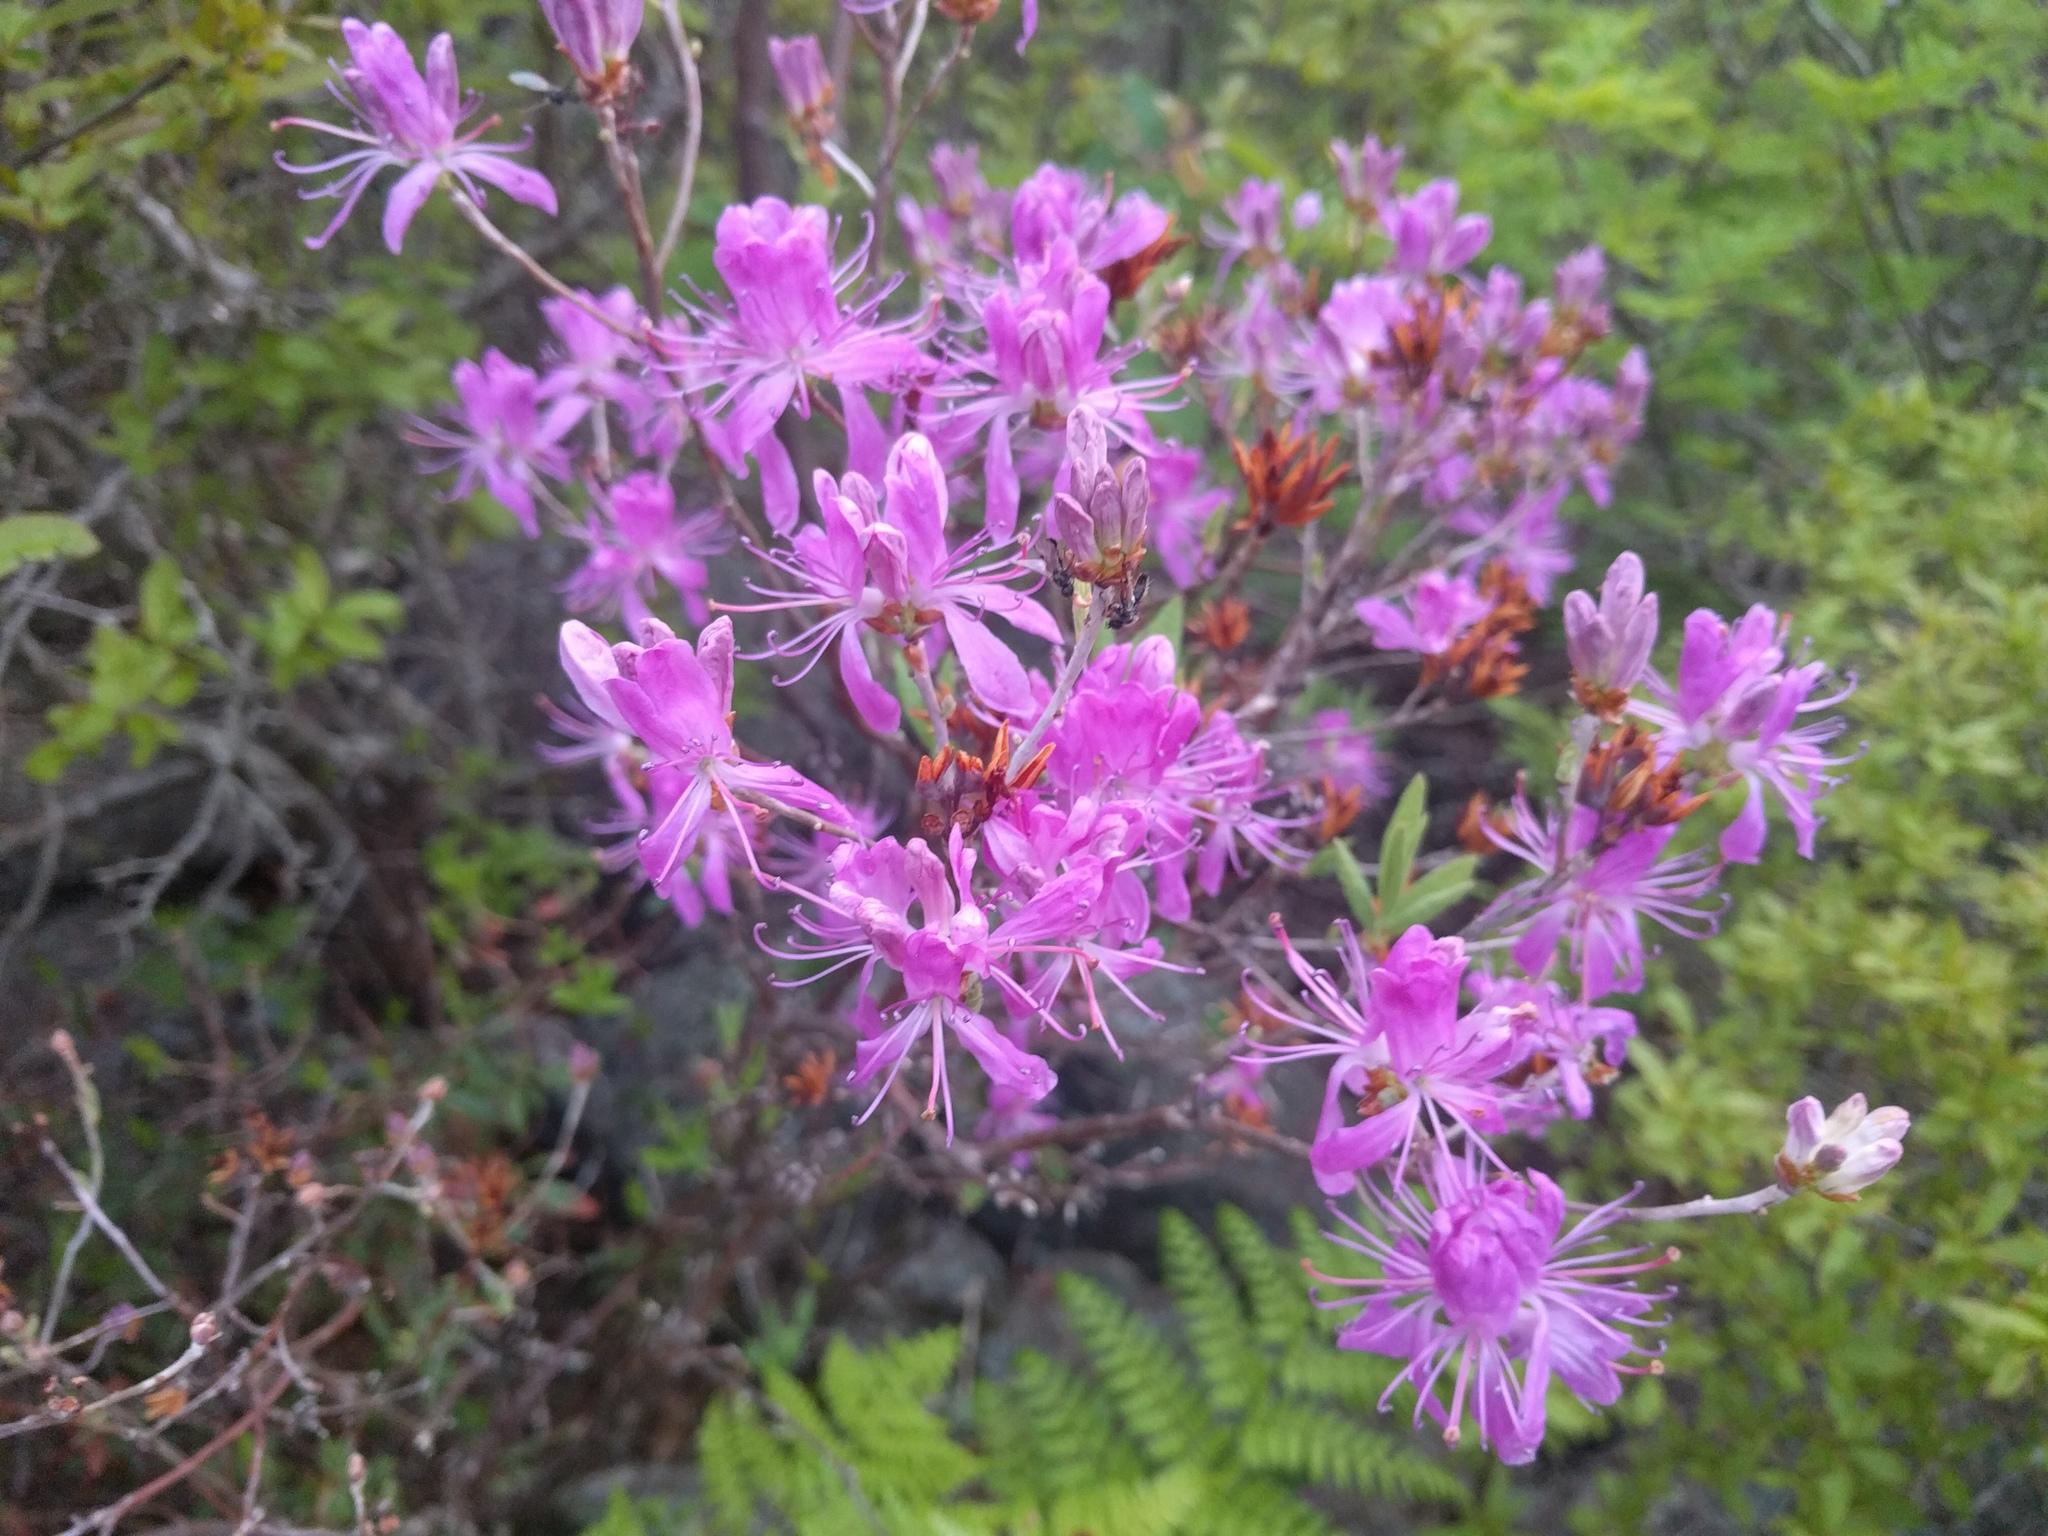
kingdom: Plantae
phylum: Tracheophyta
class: Magnoliopsida
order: Ericales
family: Ericaceae
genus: Rhododendron
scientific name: Rhododendron canadense
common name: Rhodora
